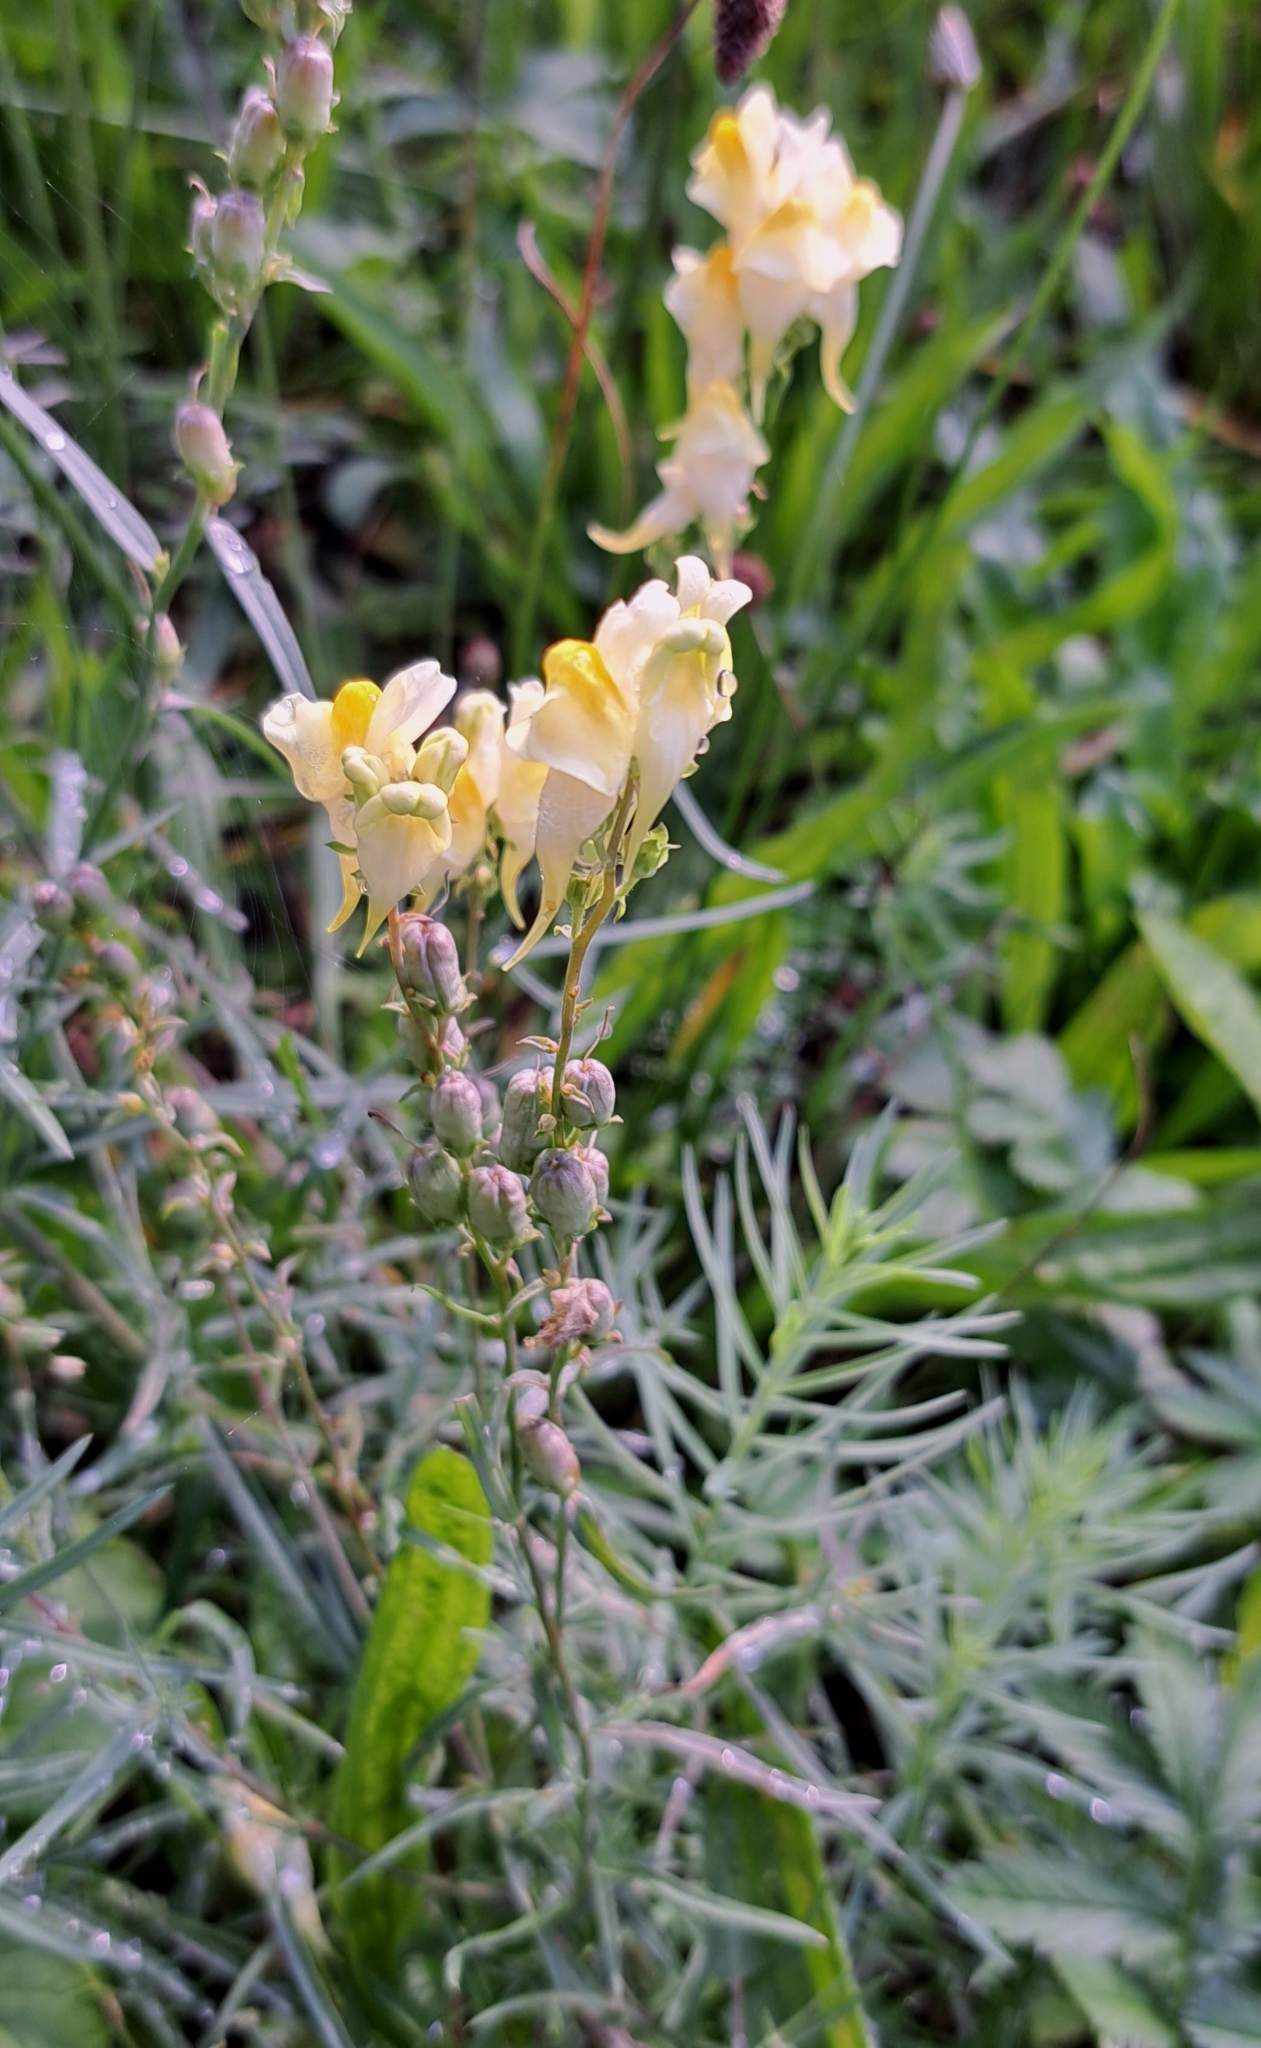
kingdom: Plantae
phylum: Tracheophyta
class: Magnoliopsida
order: Lamiales
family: Plantaginaceae
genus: Linaria
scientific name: Linaria vulgaris
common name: Butter and eggs
